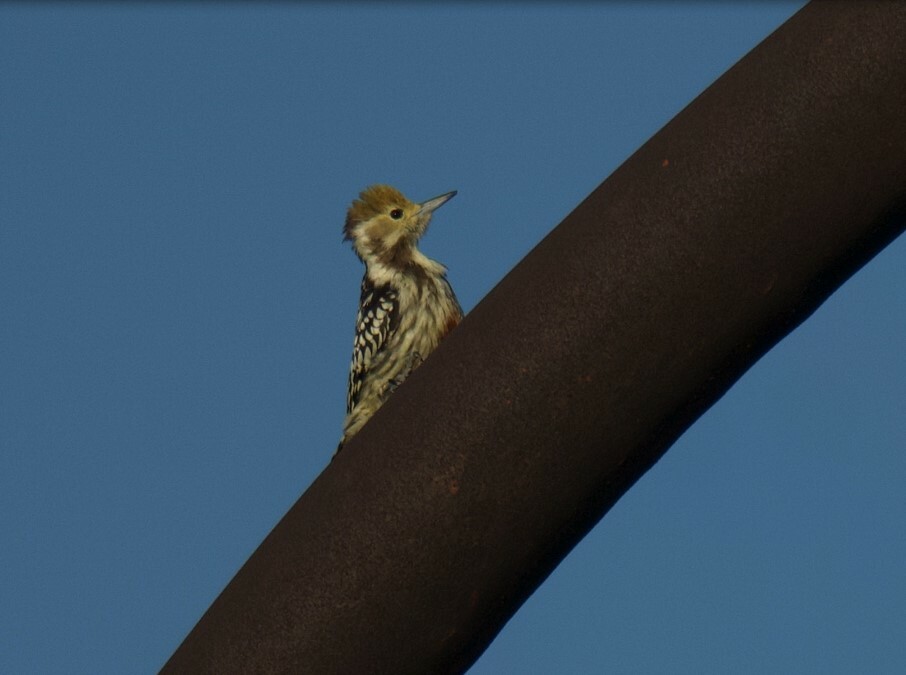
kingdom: Animalia
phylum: Chordata
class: Aves
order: Piciformes
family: Picidae
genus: Leiopicus
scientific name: Leiopicus mahrattensis
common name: Yellow-crowned woodpecker
